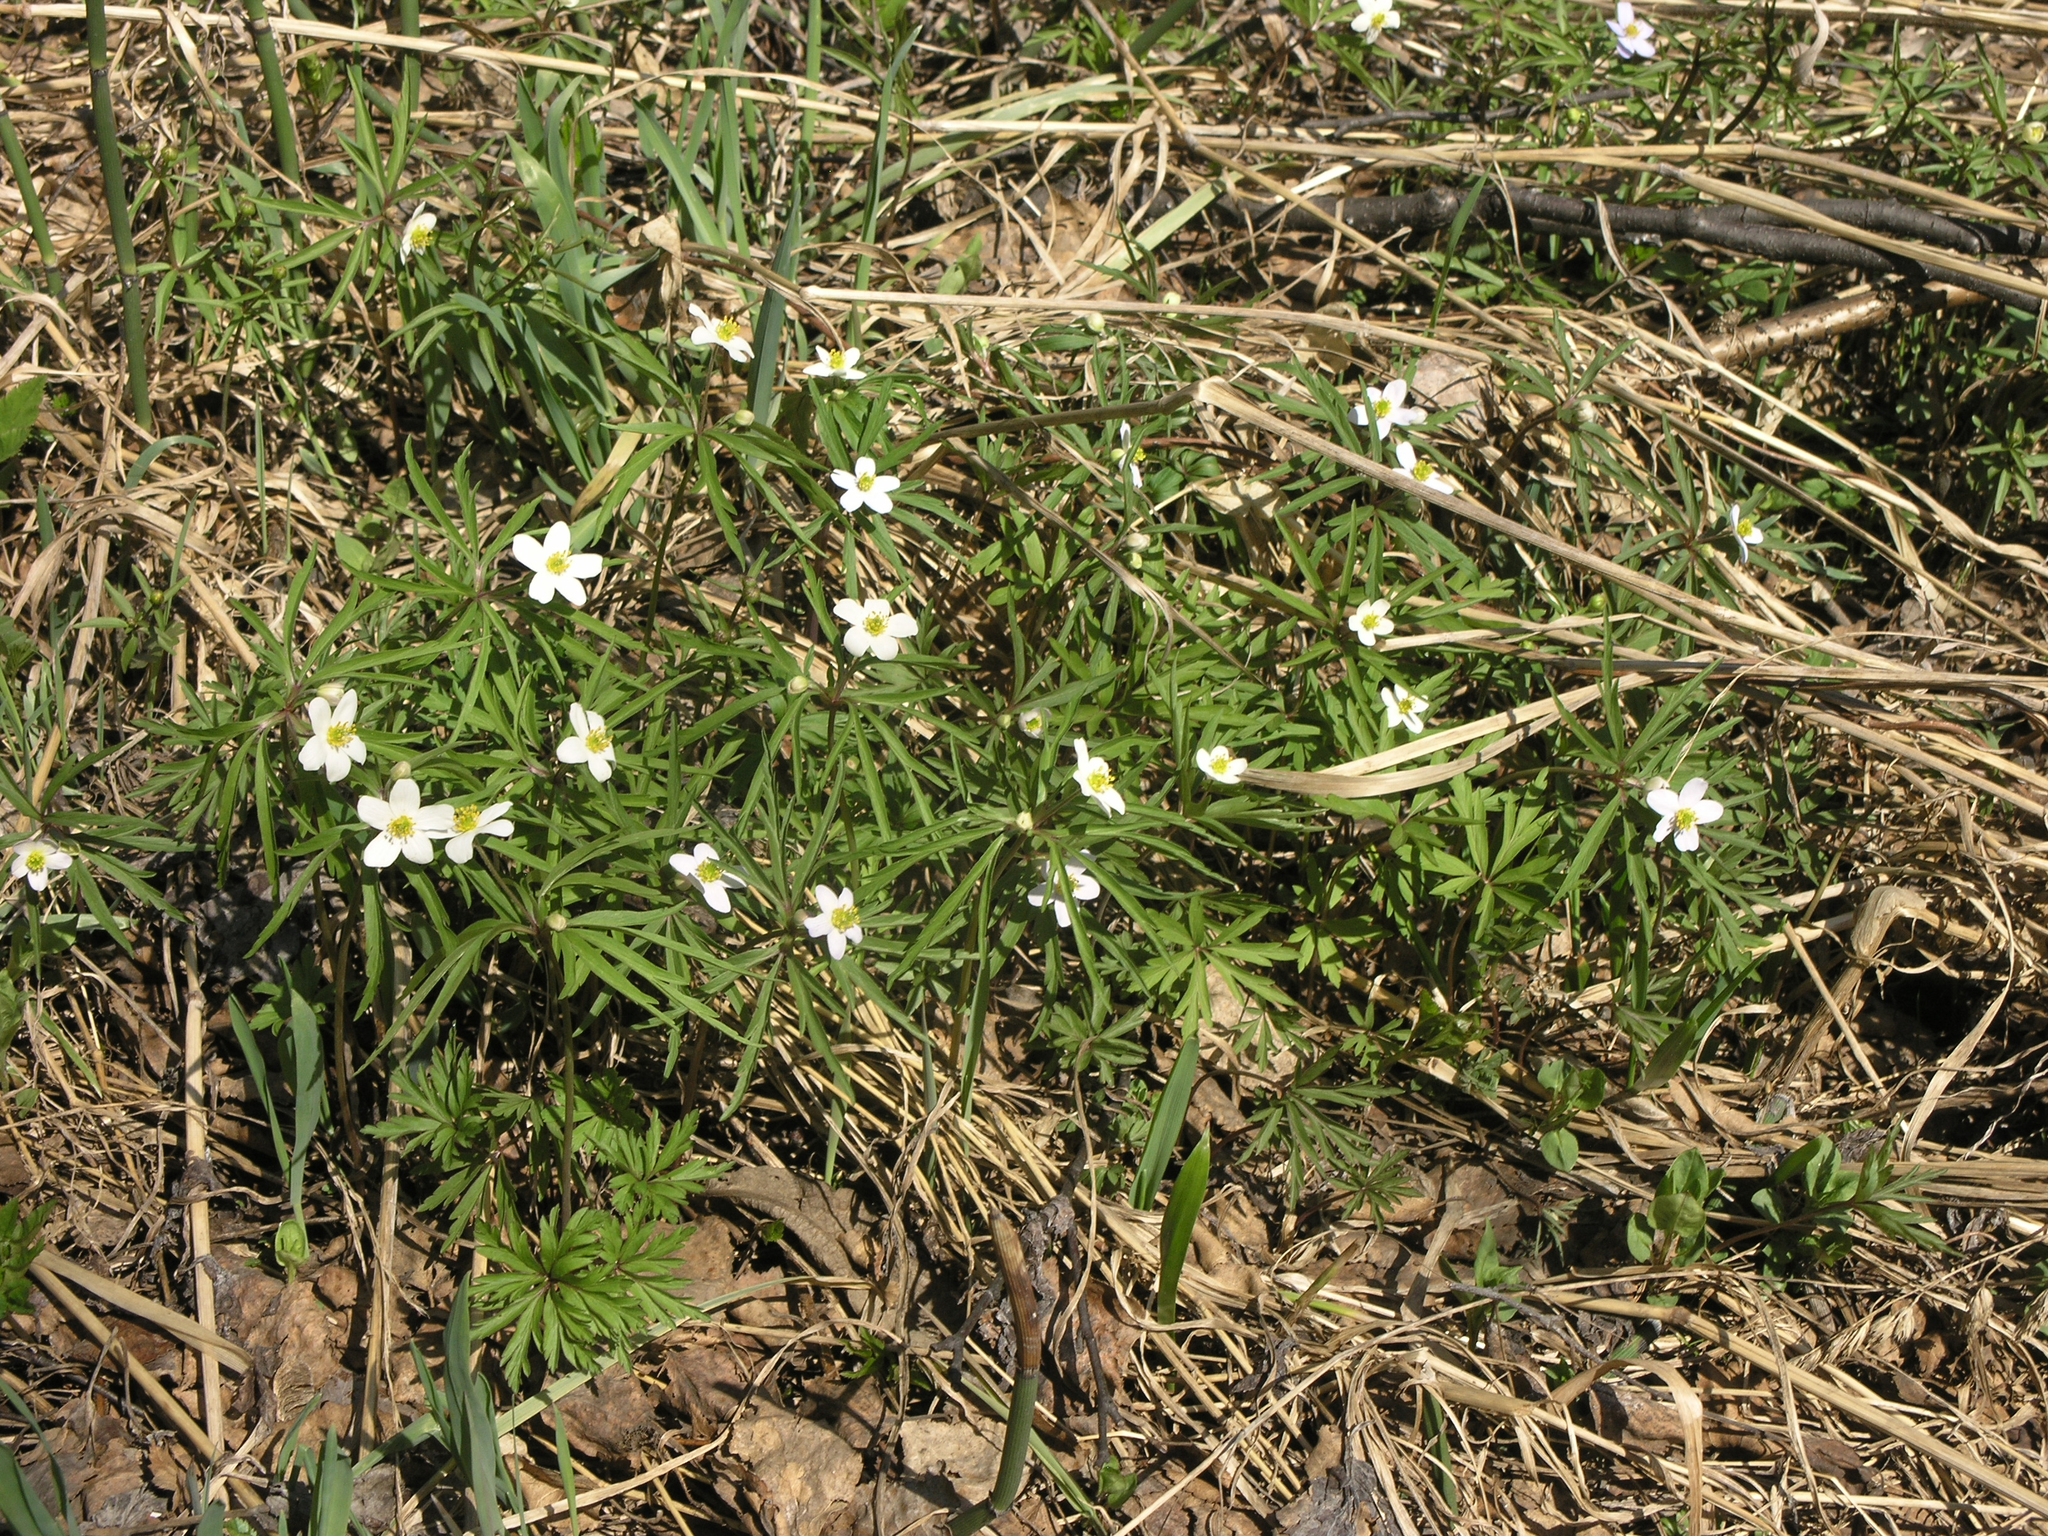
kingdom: Plantae
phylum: Tracheophyta
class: Magnoliopsida
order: Ranunculales
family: Ranunculaceae
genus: Anemone
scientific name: Anemone caerulea
